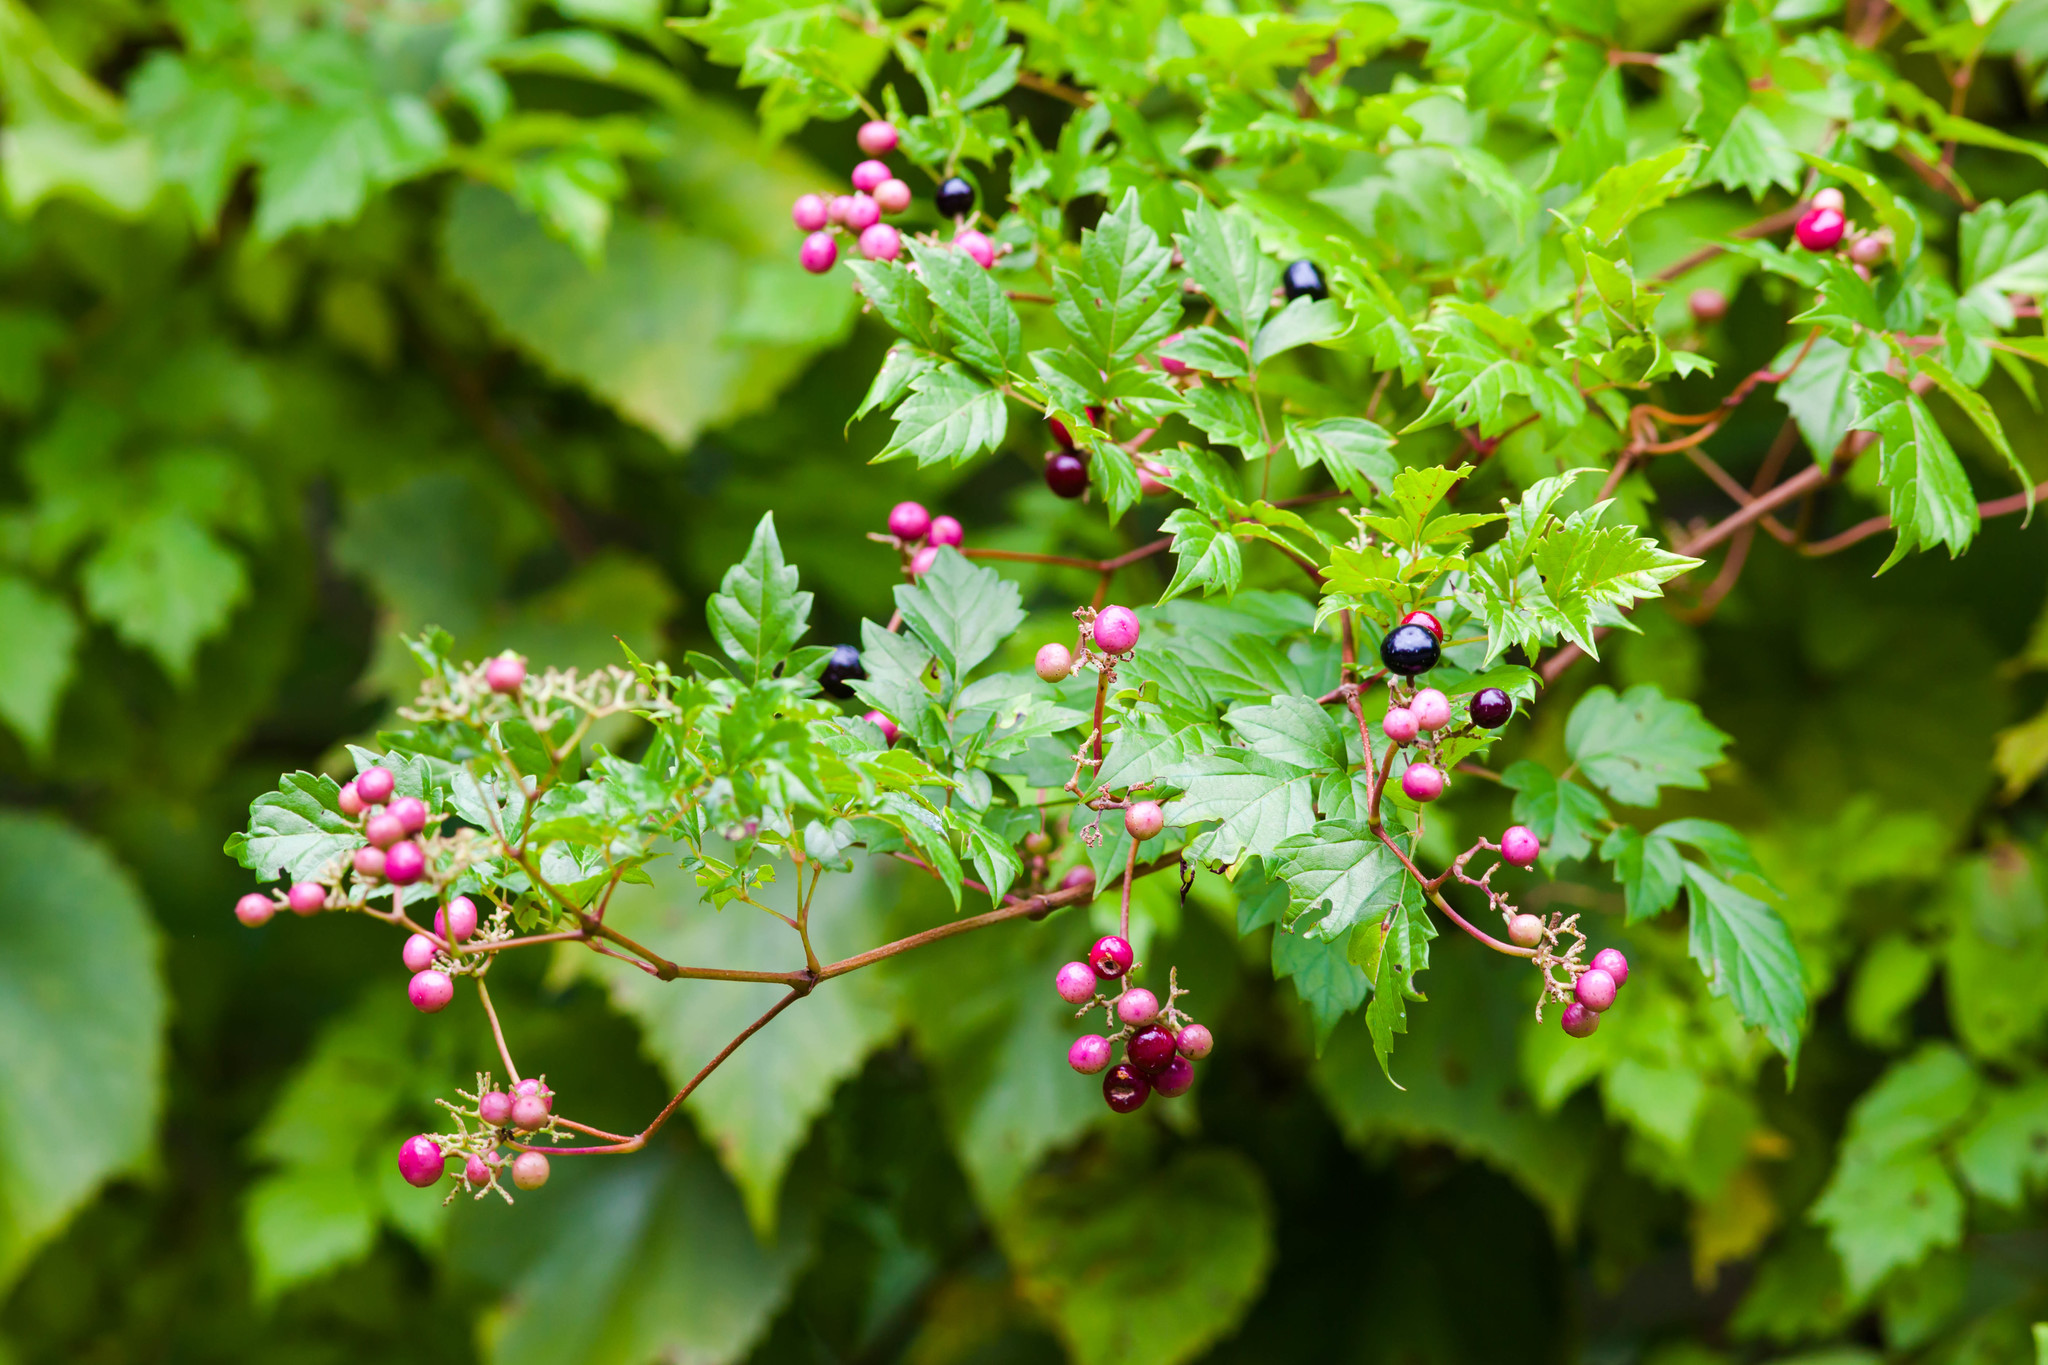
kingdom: Plantae
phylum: Tracheophyta
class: Magnoliopsida
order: Vitales
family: Vitaceae
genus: Nekemias
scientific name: Nekemias arborea
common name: Peppervine
